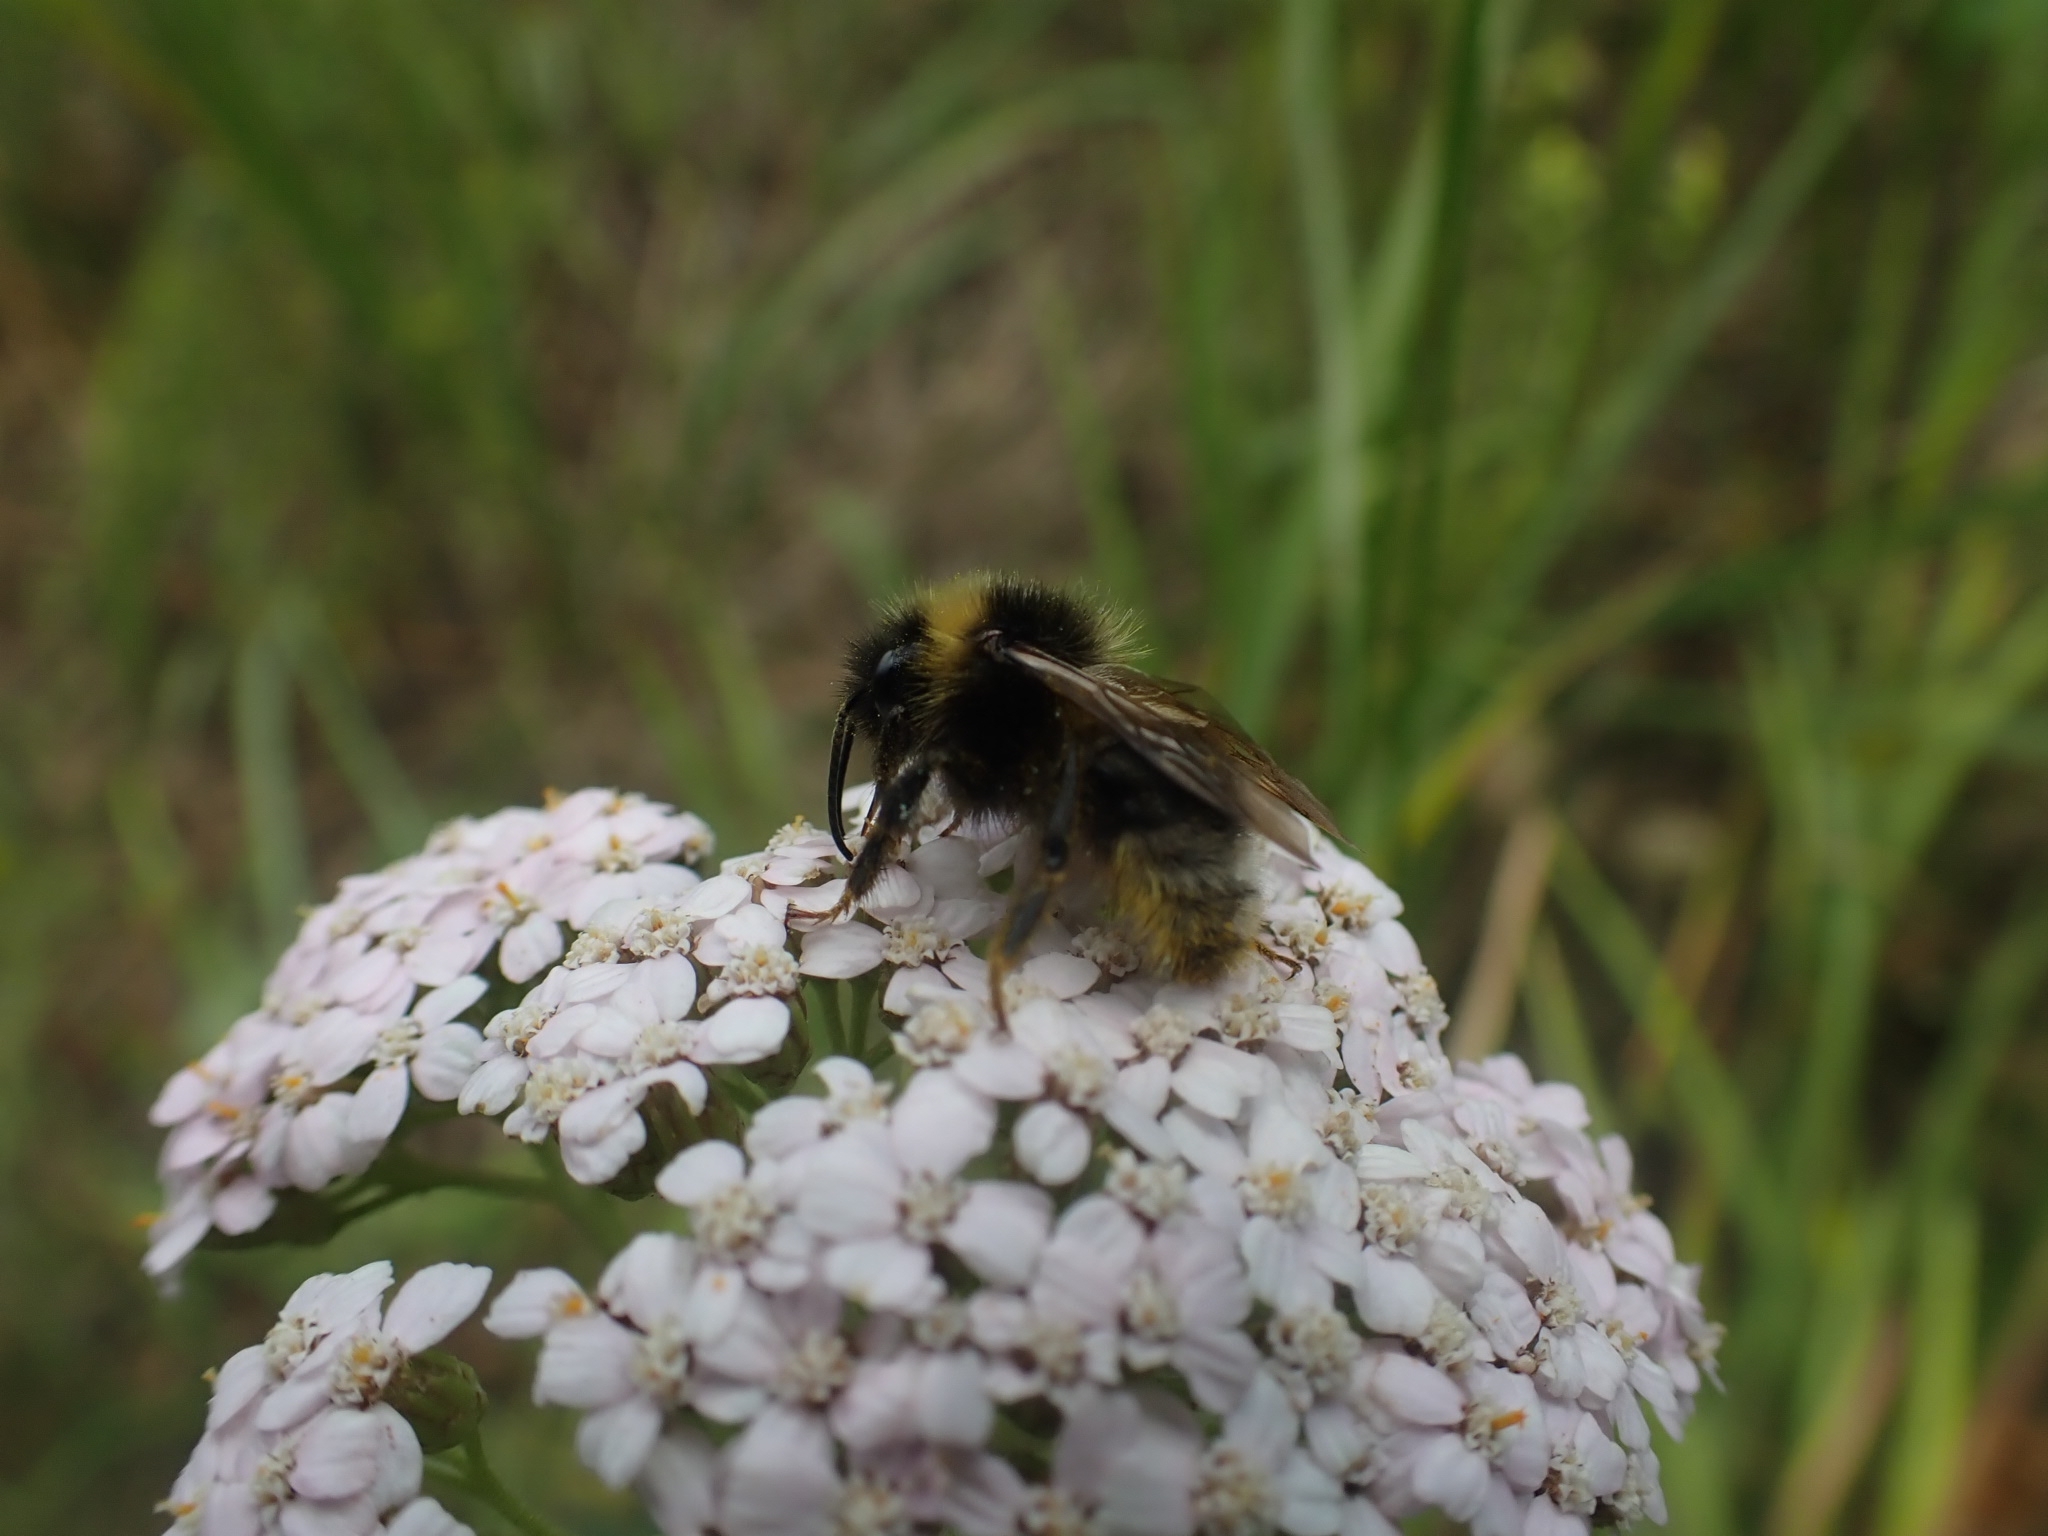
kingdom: Animalia
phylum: Arthropoda
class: Insecta
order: Hymenoptera
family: Apidae
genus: Bombus
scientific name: Bombus bohemicus
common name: Gypsy cuckoo bee
